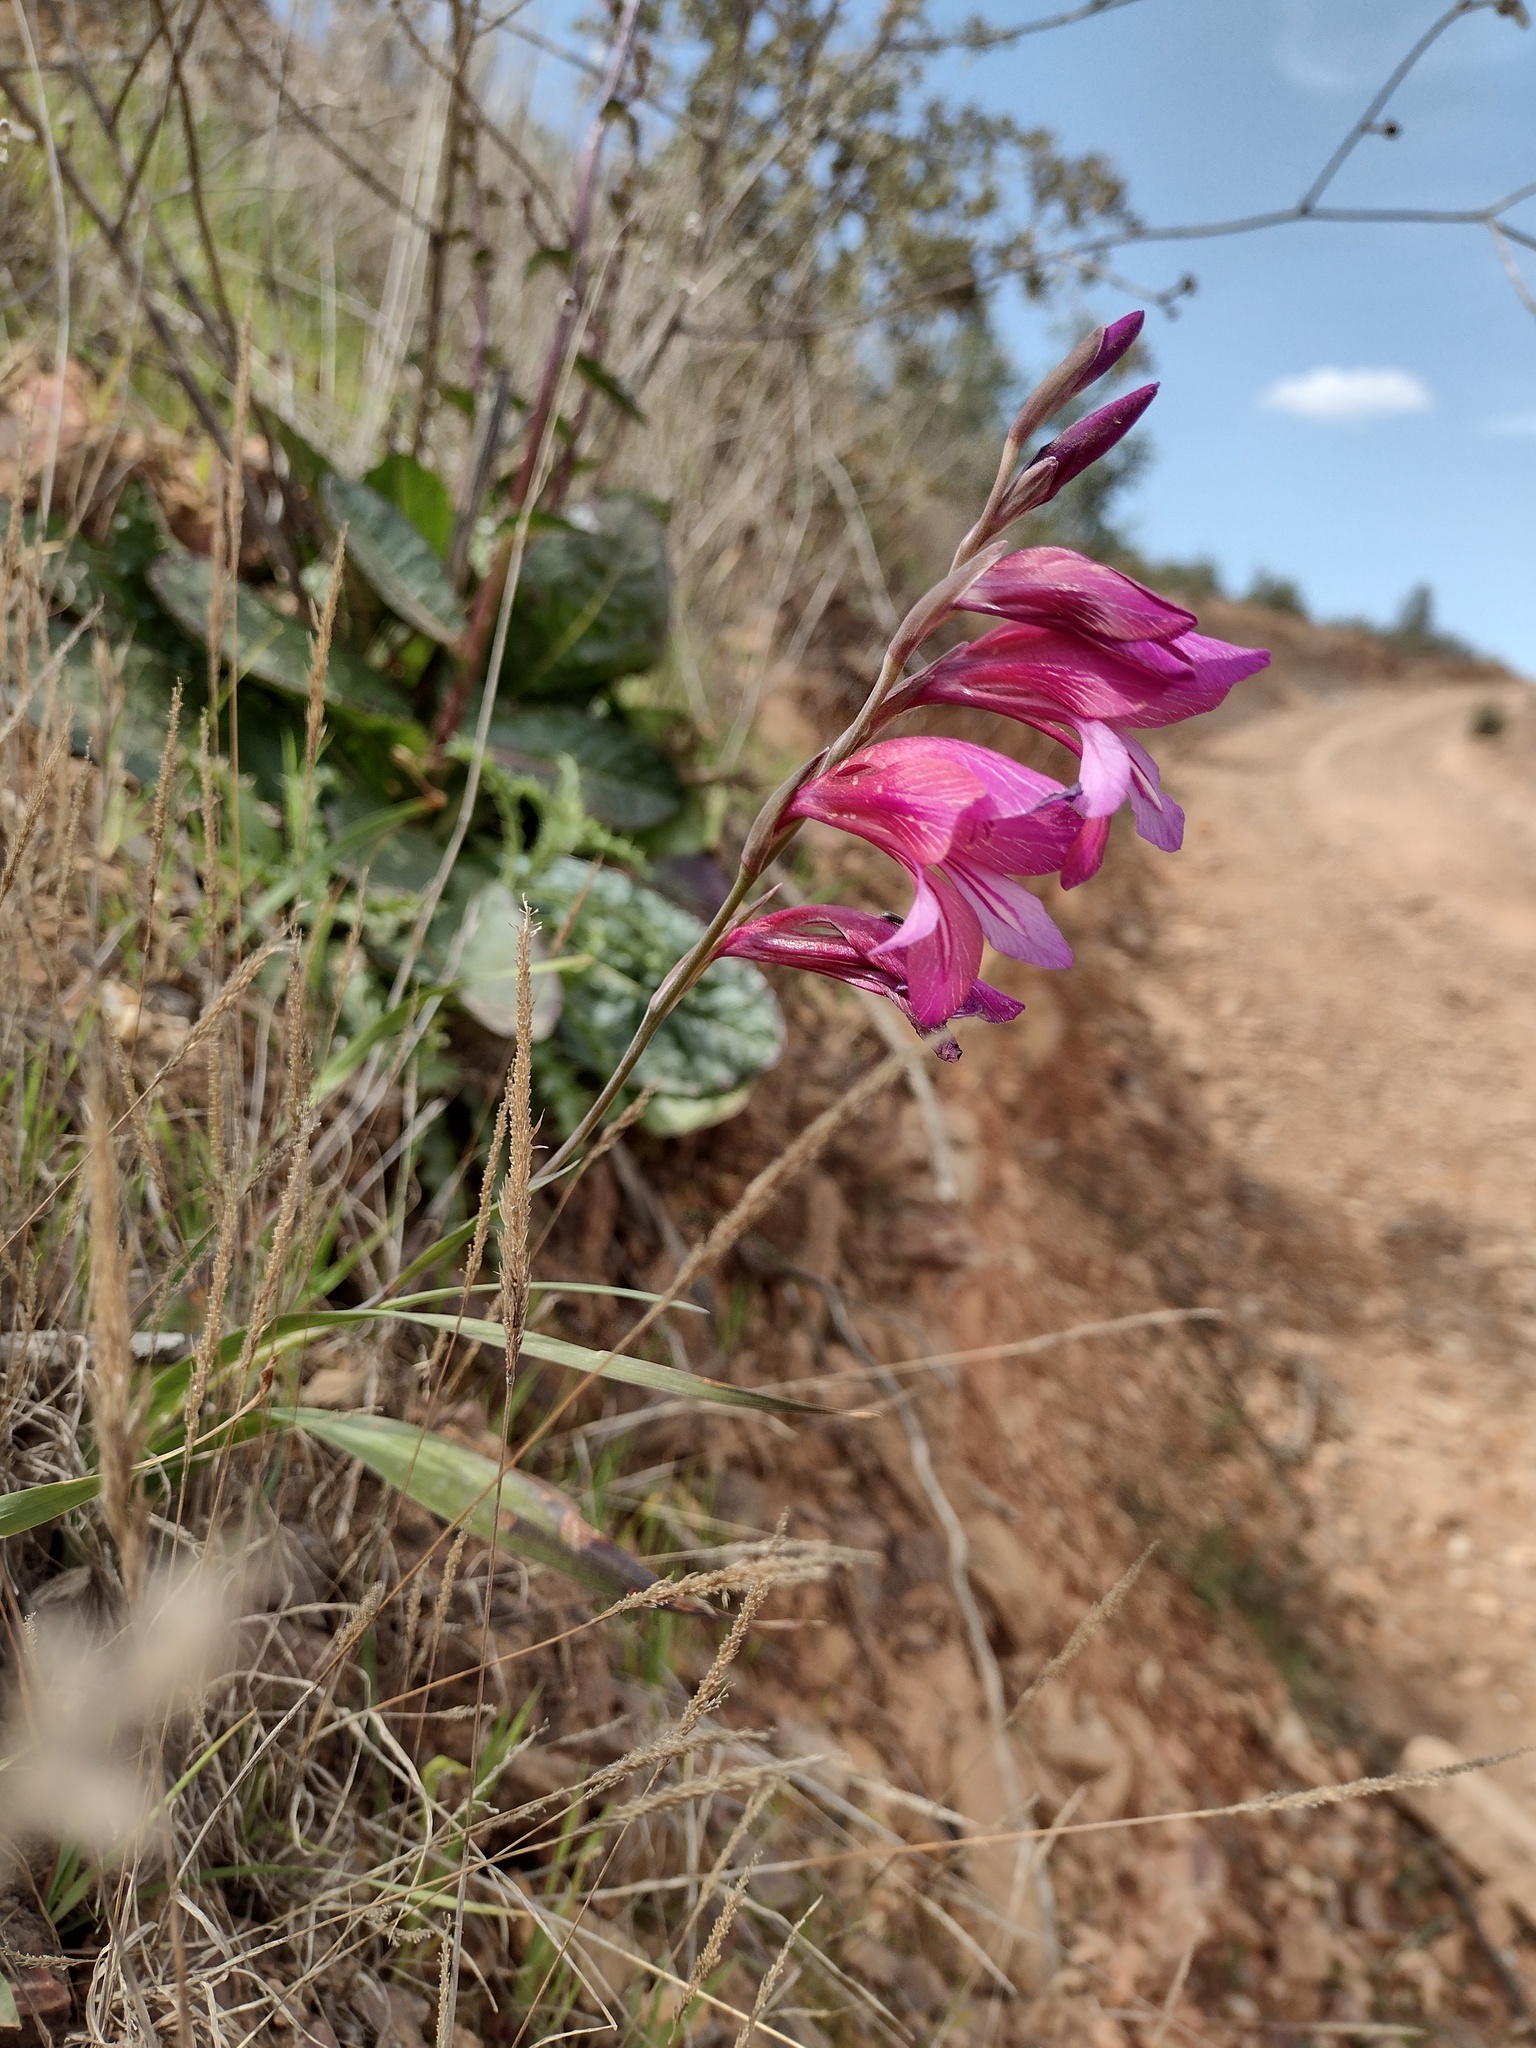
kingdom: Plantae
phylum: Tracheophyta
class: Liliopsida
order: Asparagales
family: Iridaceae
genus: Gladiolus
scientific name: Gladiolus italicus
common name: Field gladiolus
